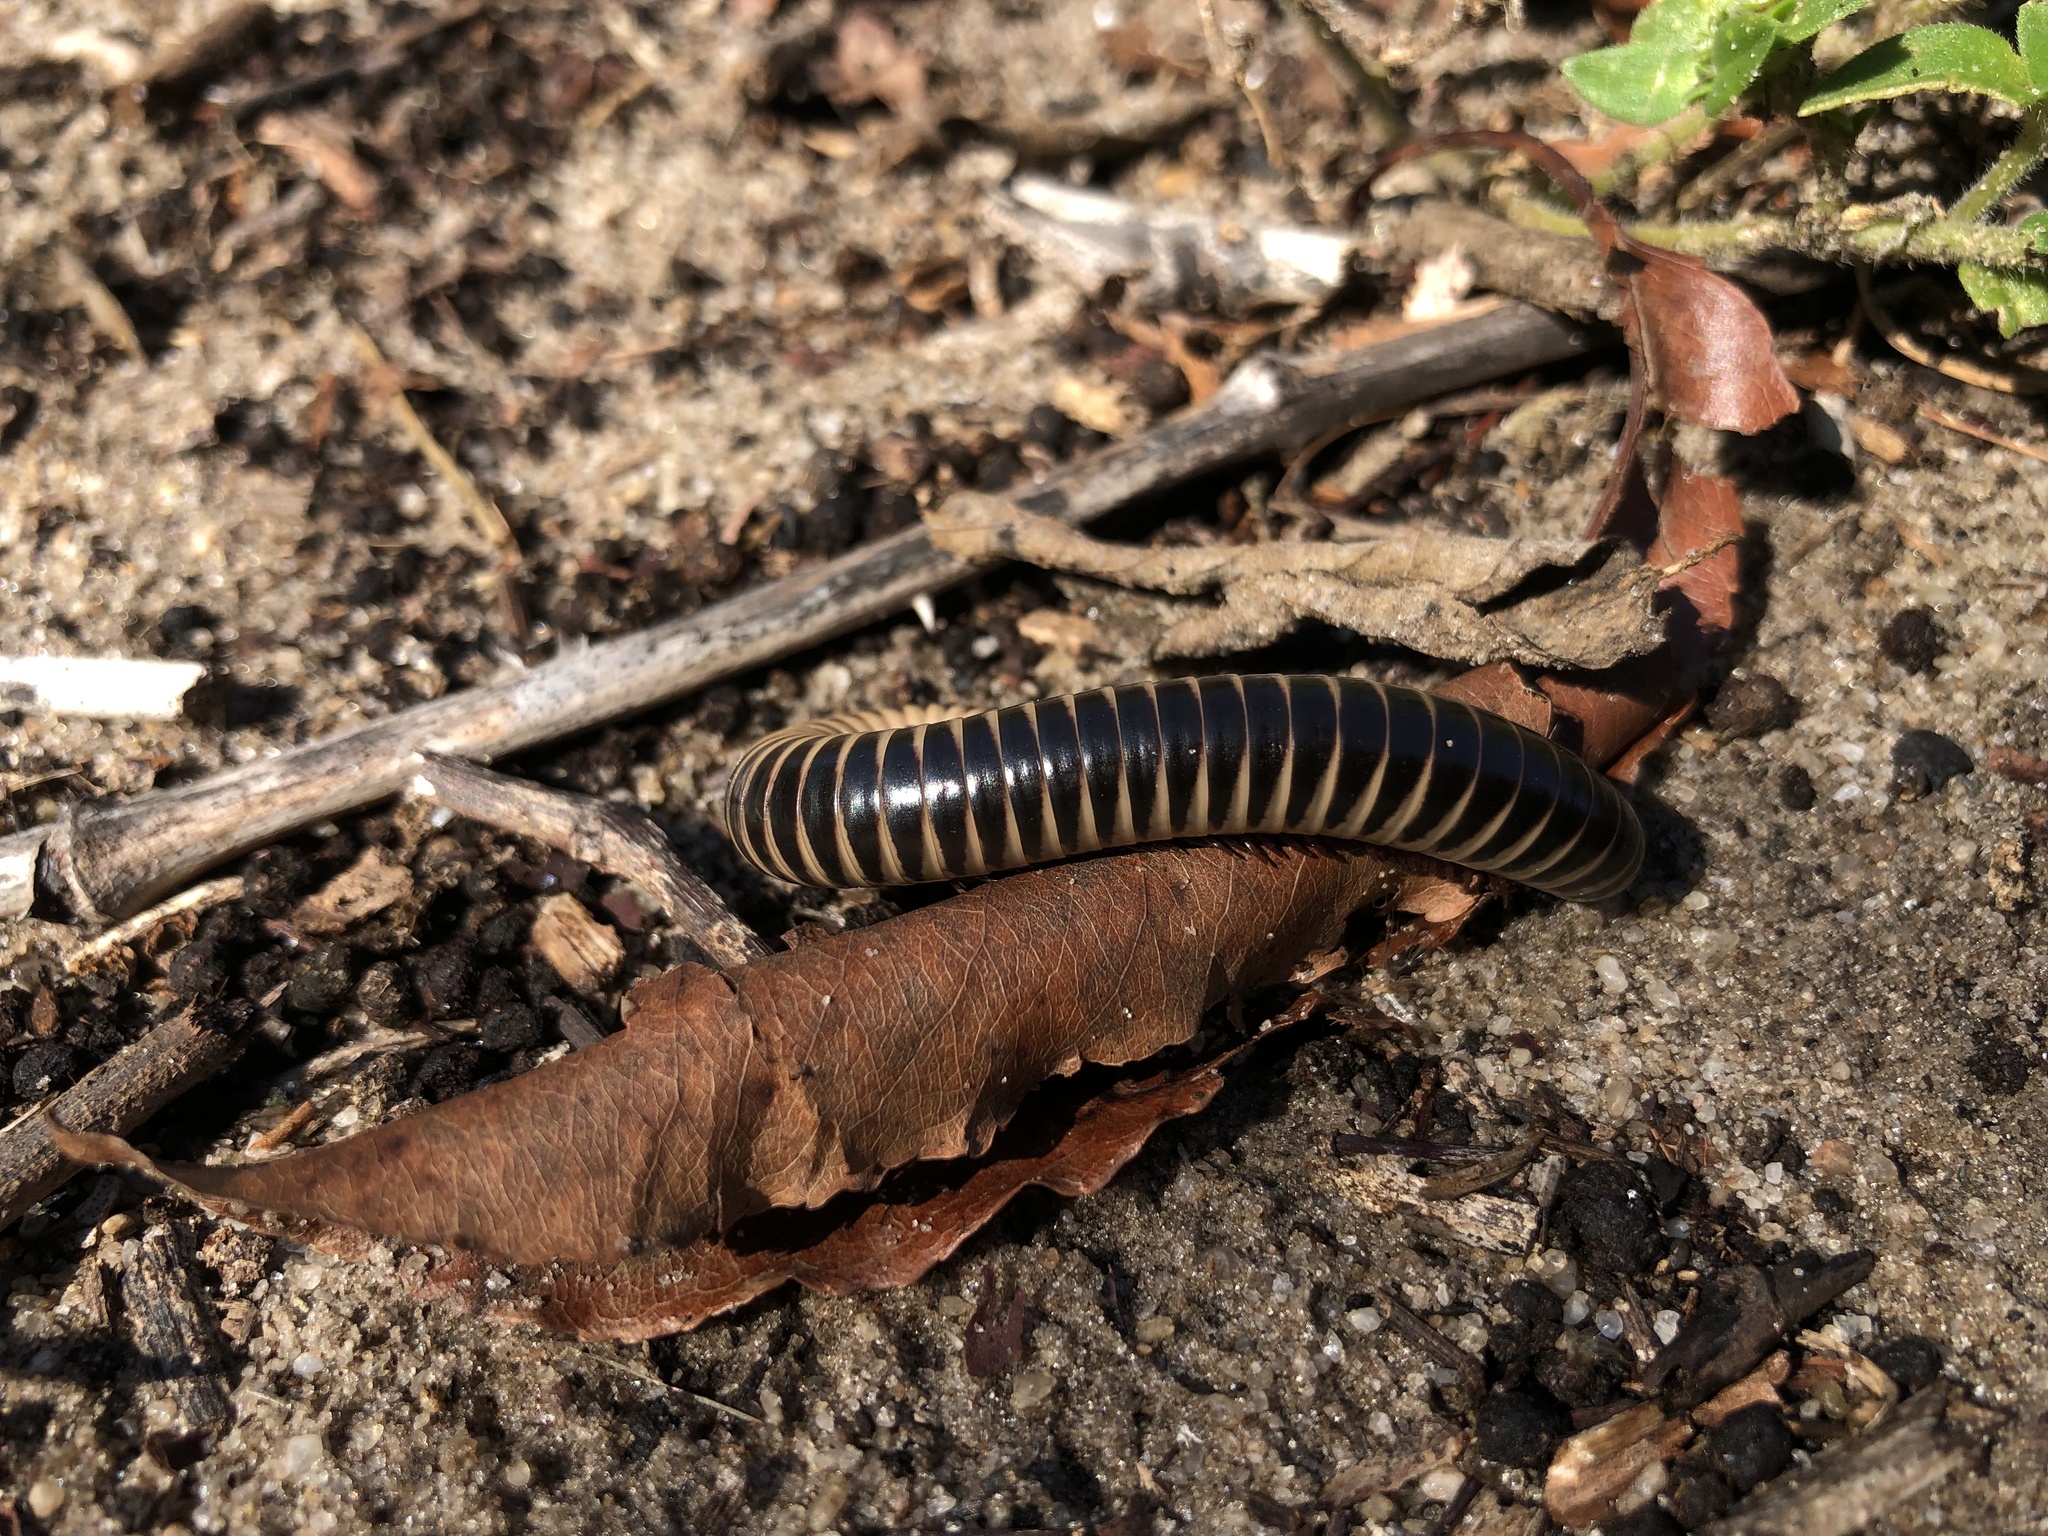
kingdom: Animalia
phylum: Arthropoda
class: Diplopoda
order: Spirobolida
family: Spirobolidae
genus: Chicobolus
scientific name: Chicobolus spinigerus
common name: Florida ivory millipede
